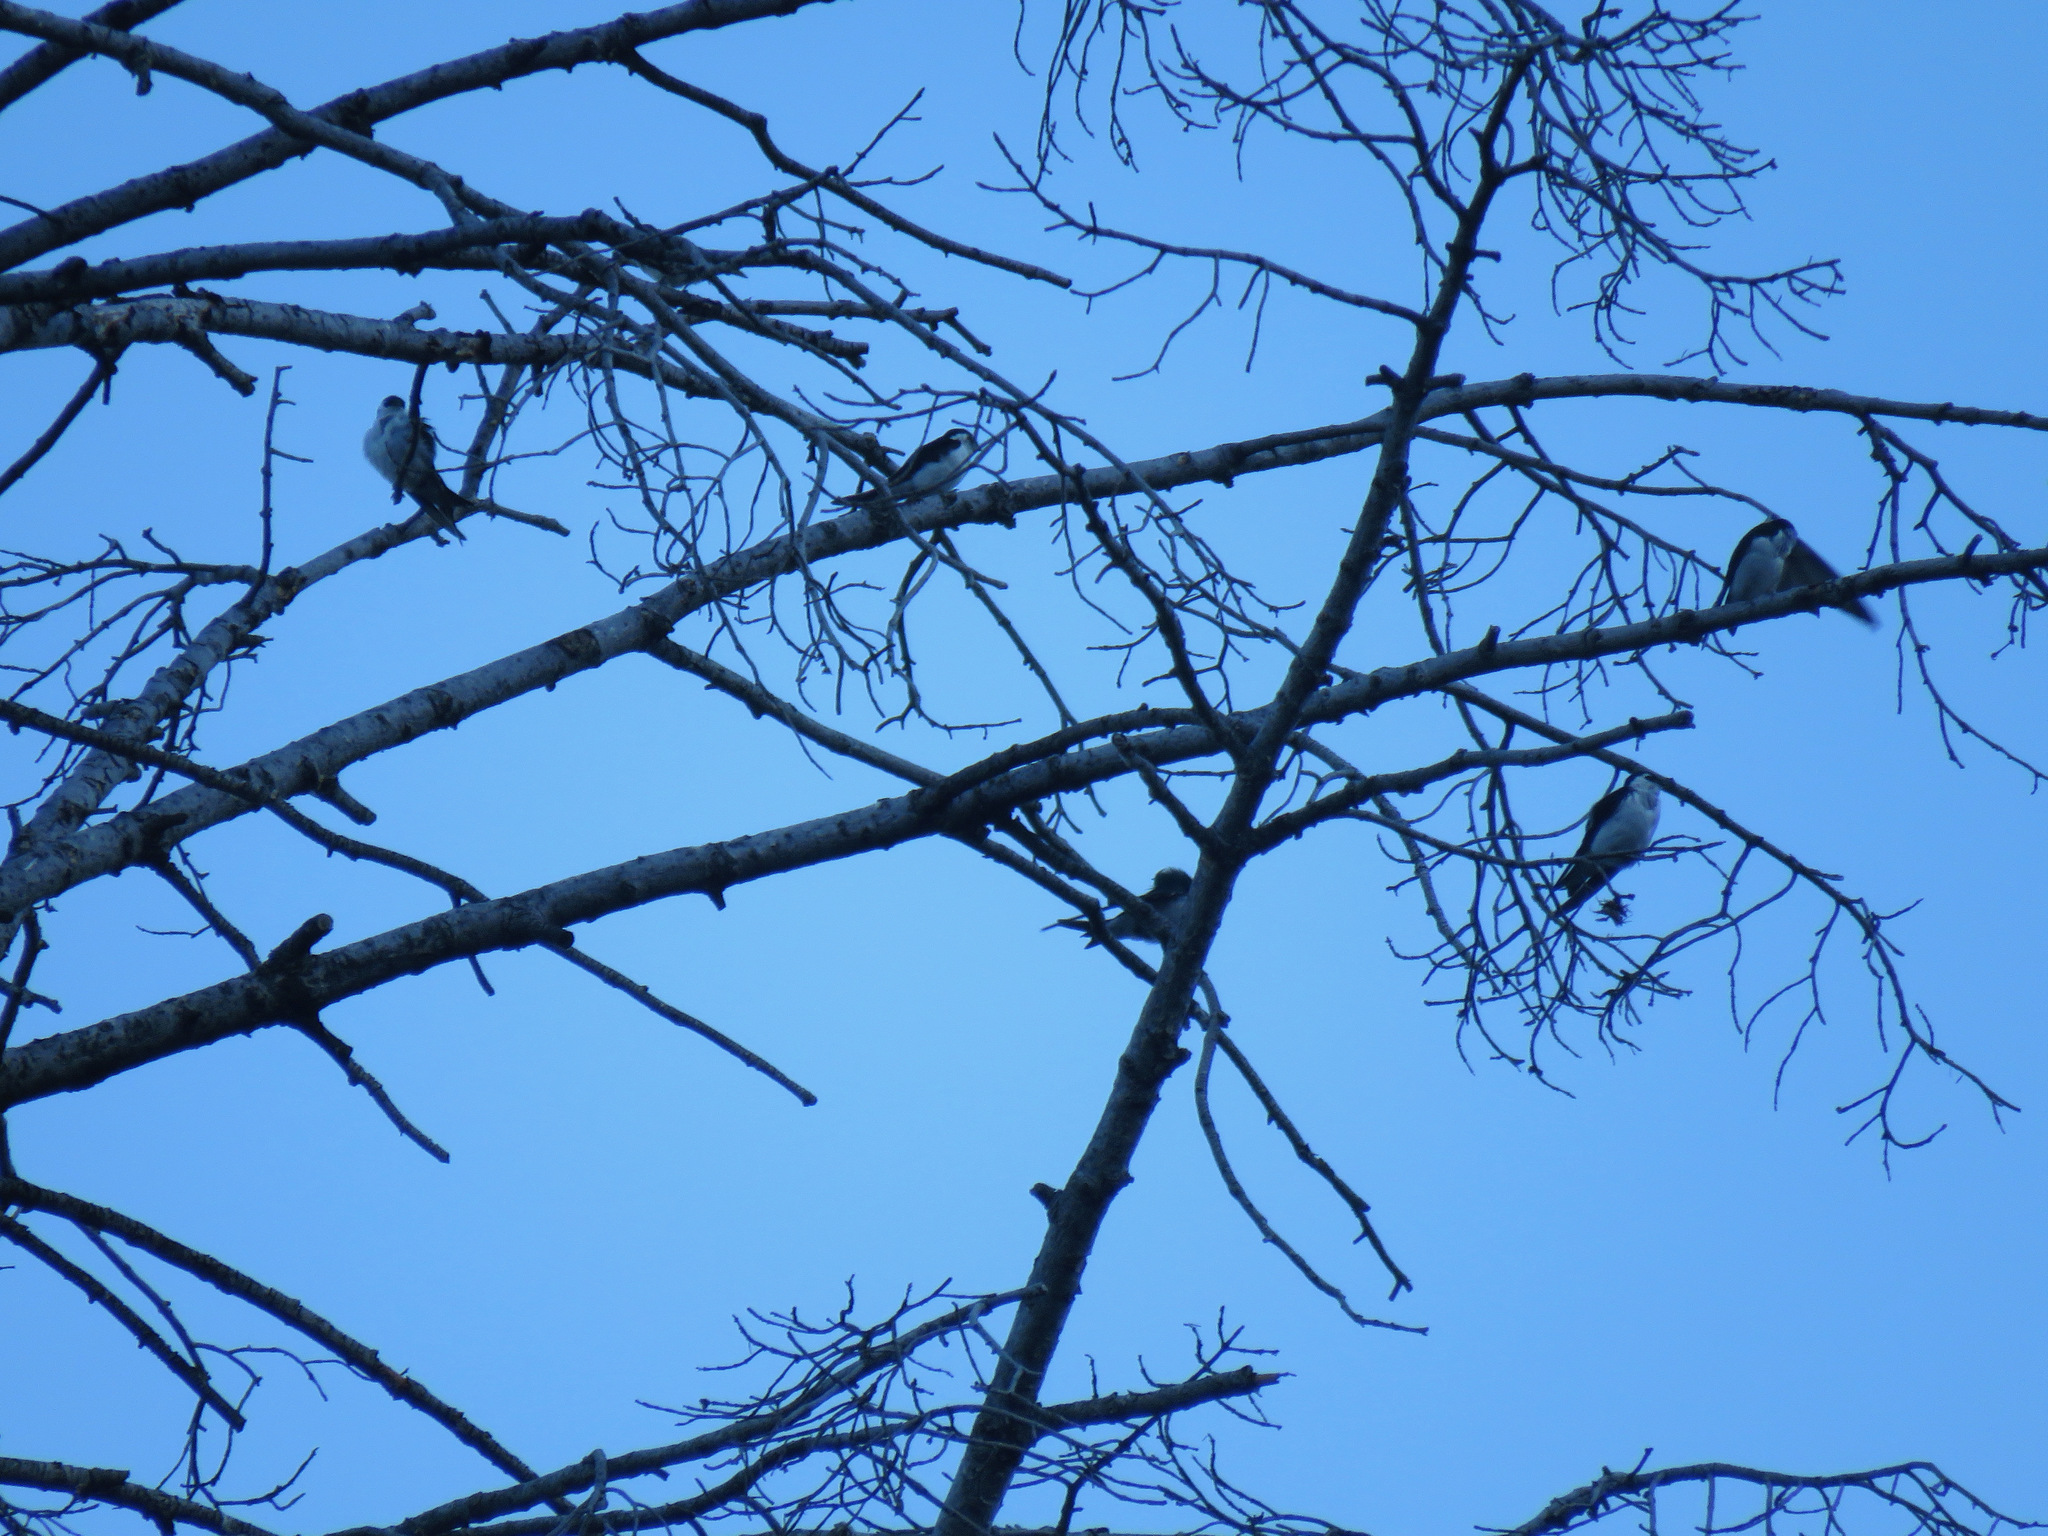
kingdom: Animalia
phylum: Chordata
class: Aves
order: Passeriformes
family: Hirundinidae
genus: Tachycineta
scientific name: Tachycineta thalassina
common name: Violet-green swallow
